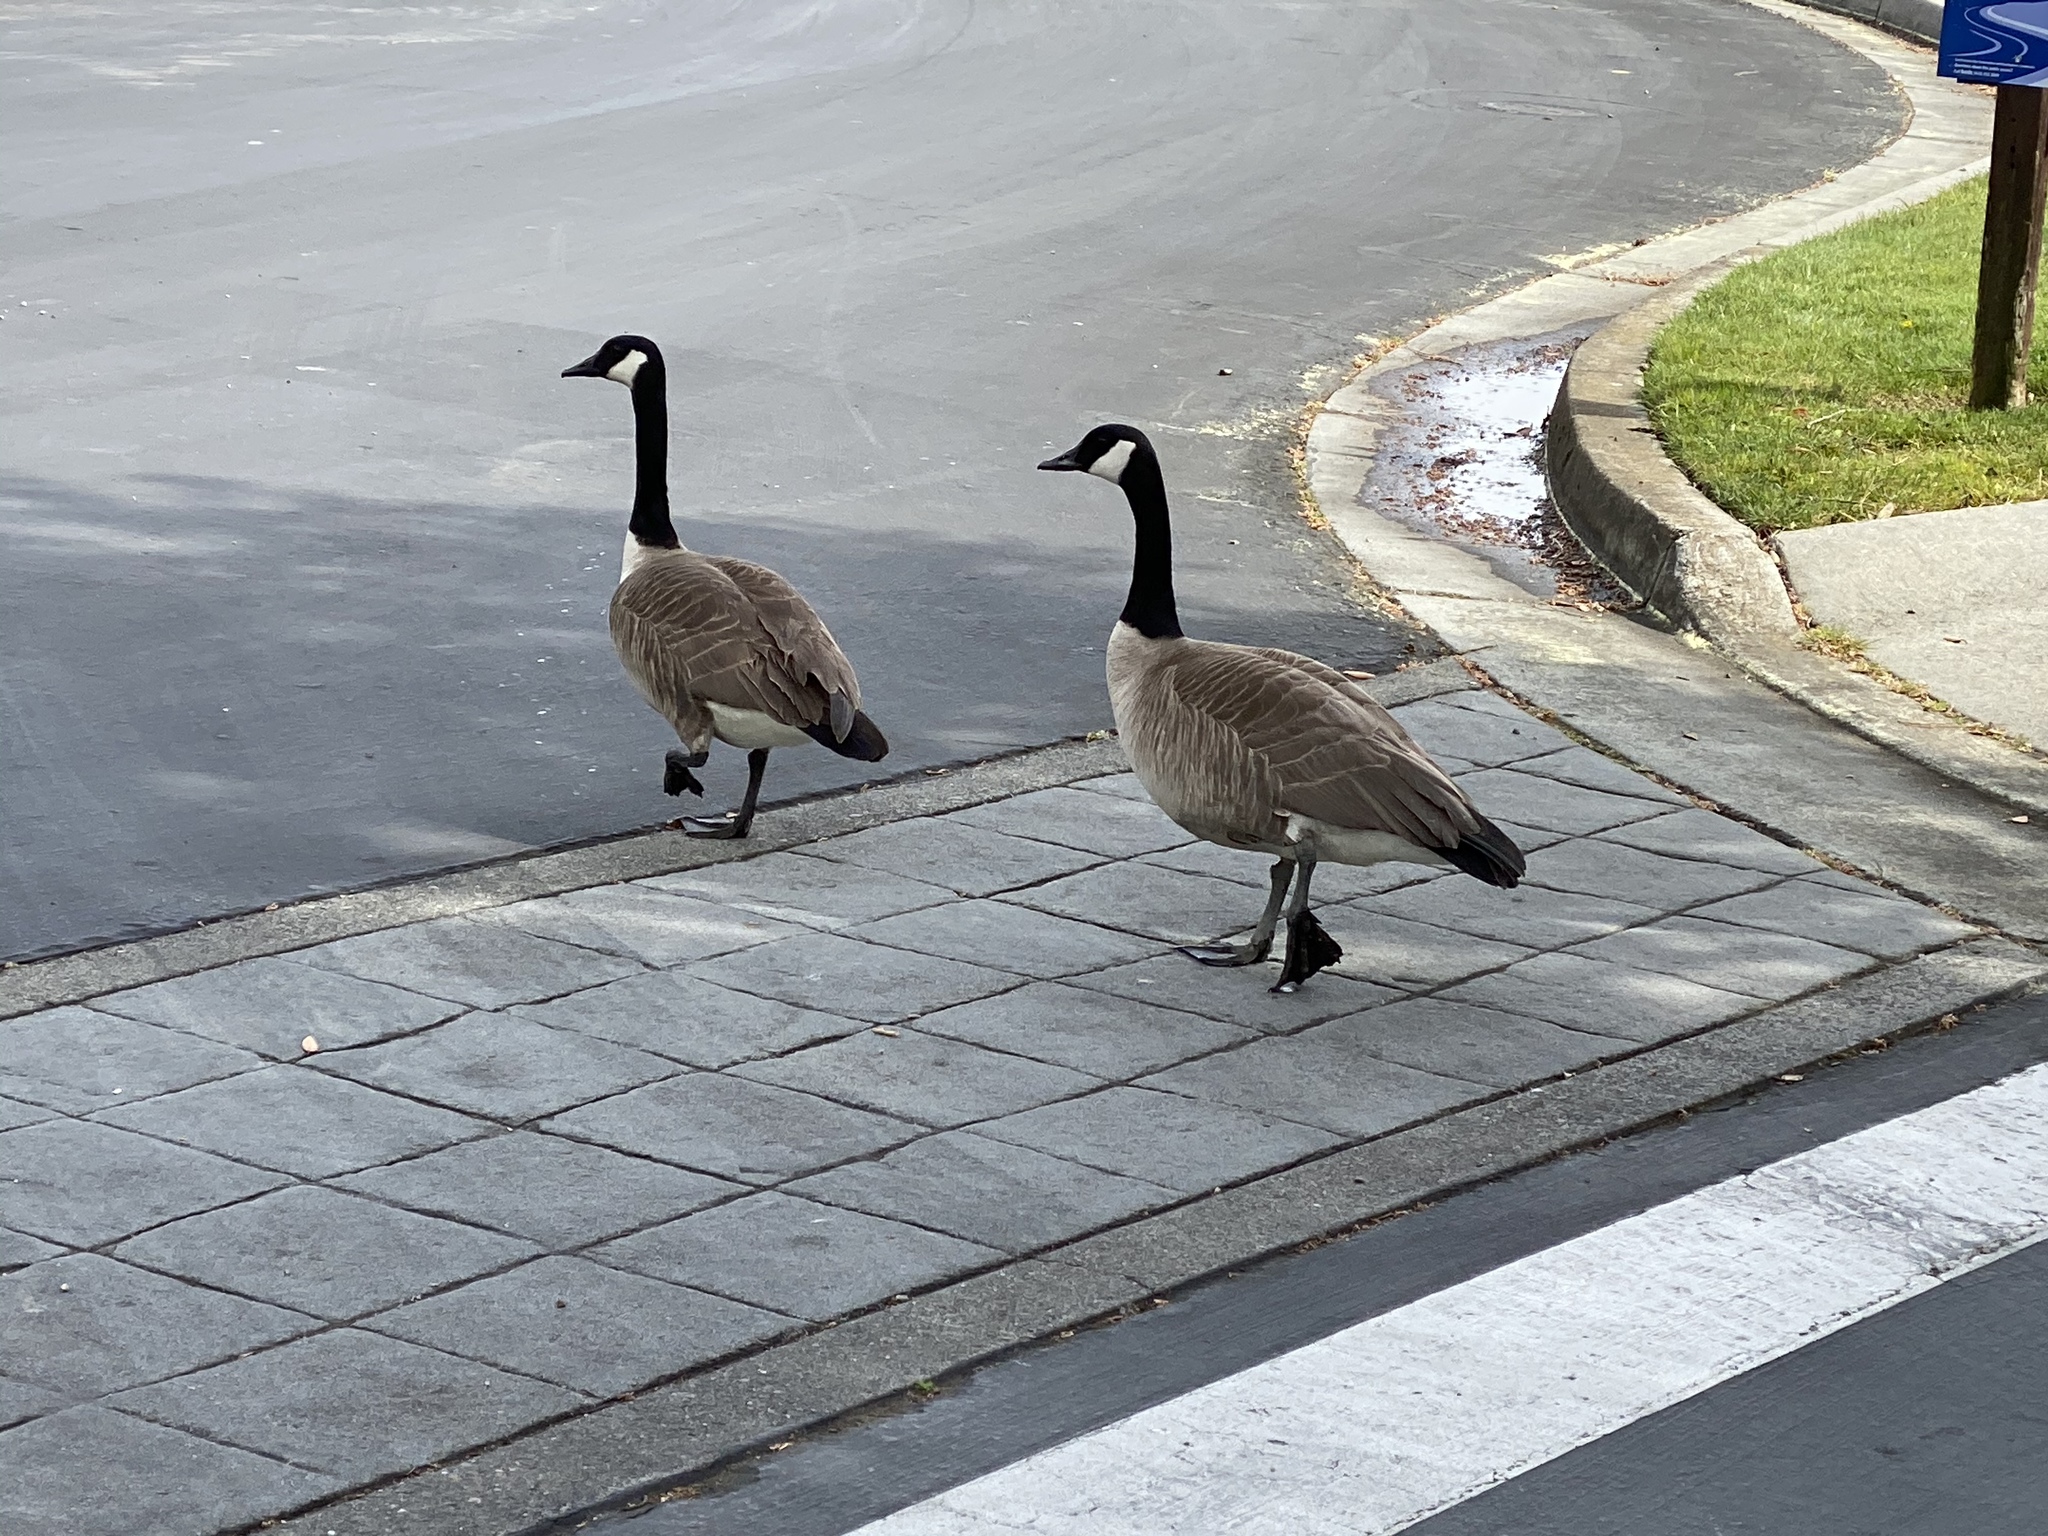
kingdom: Animalia
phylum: Chordata
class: Aves
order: Anseriformes
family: Anatidae
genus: Branta
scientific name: Branta canadensis
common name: Canada goose
